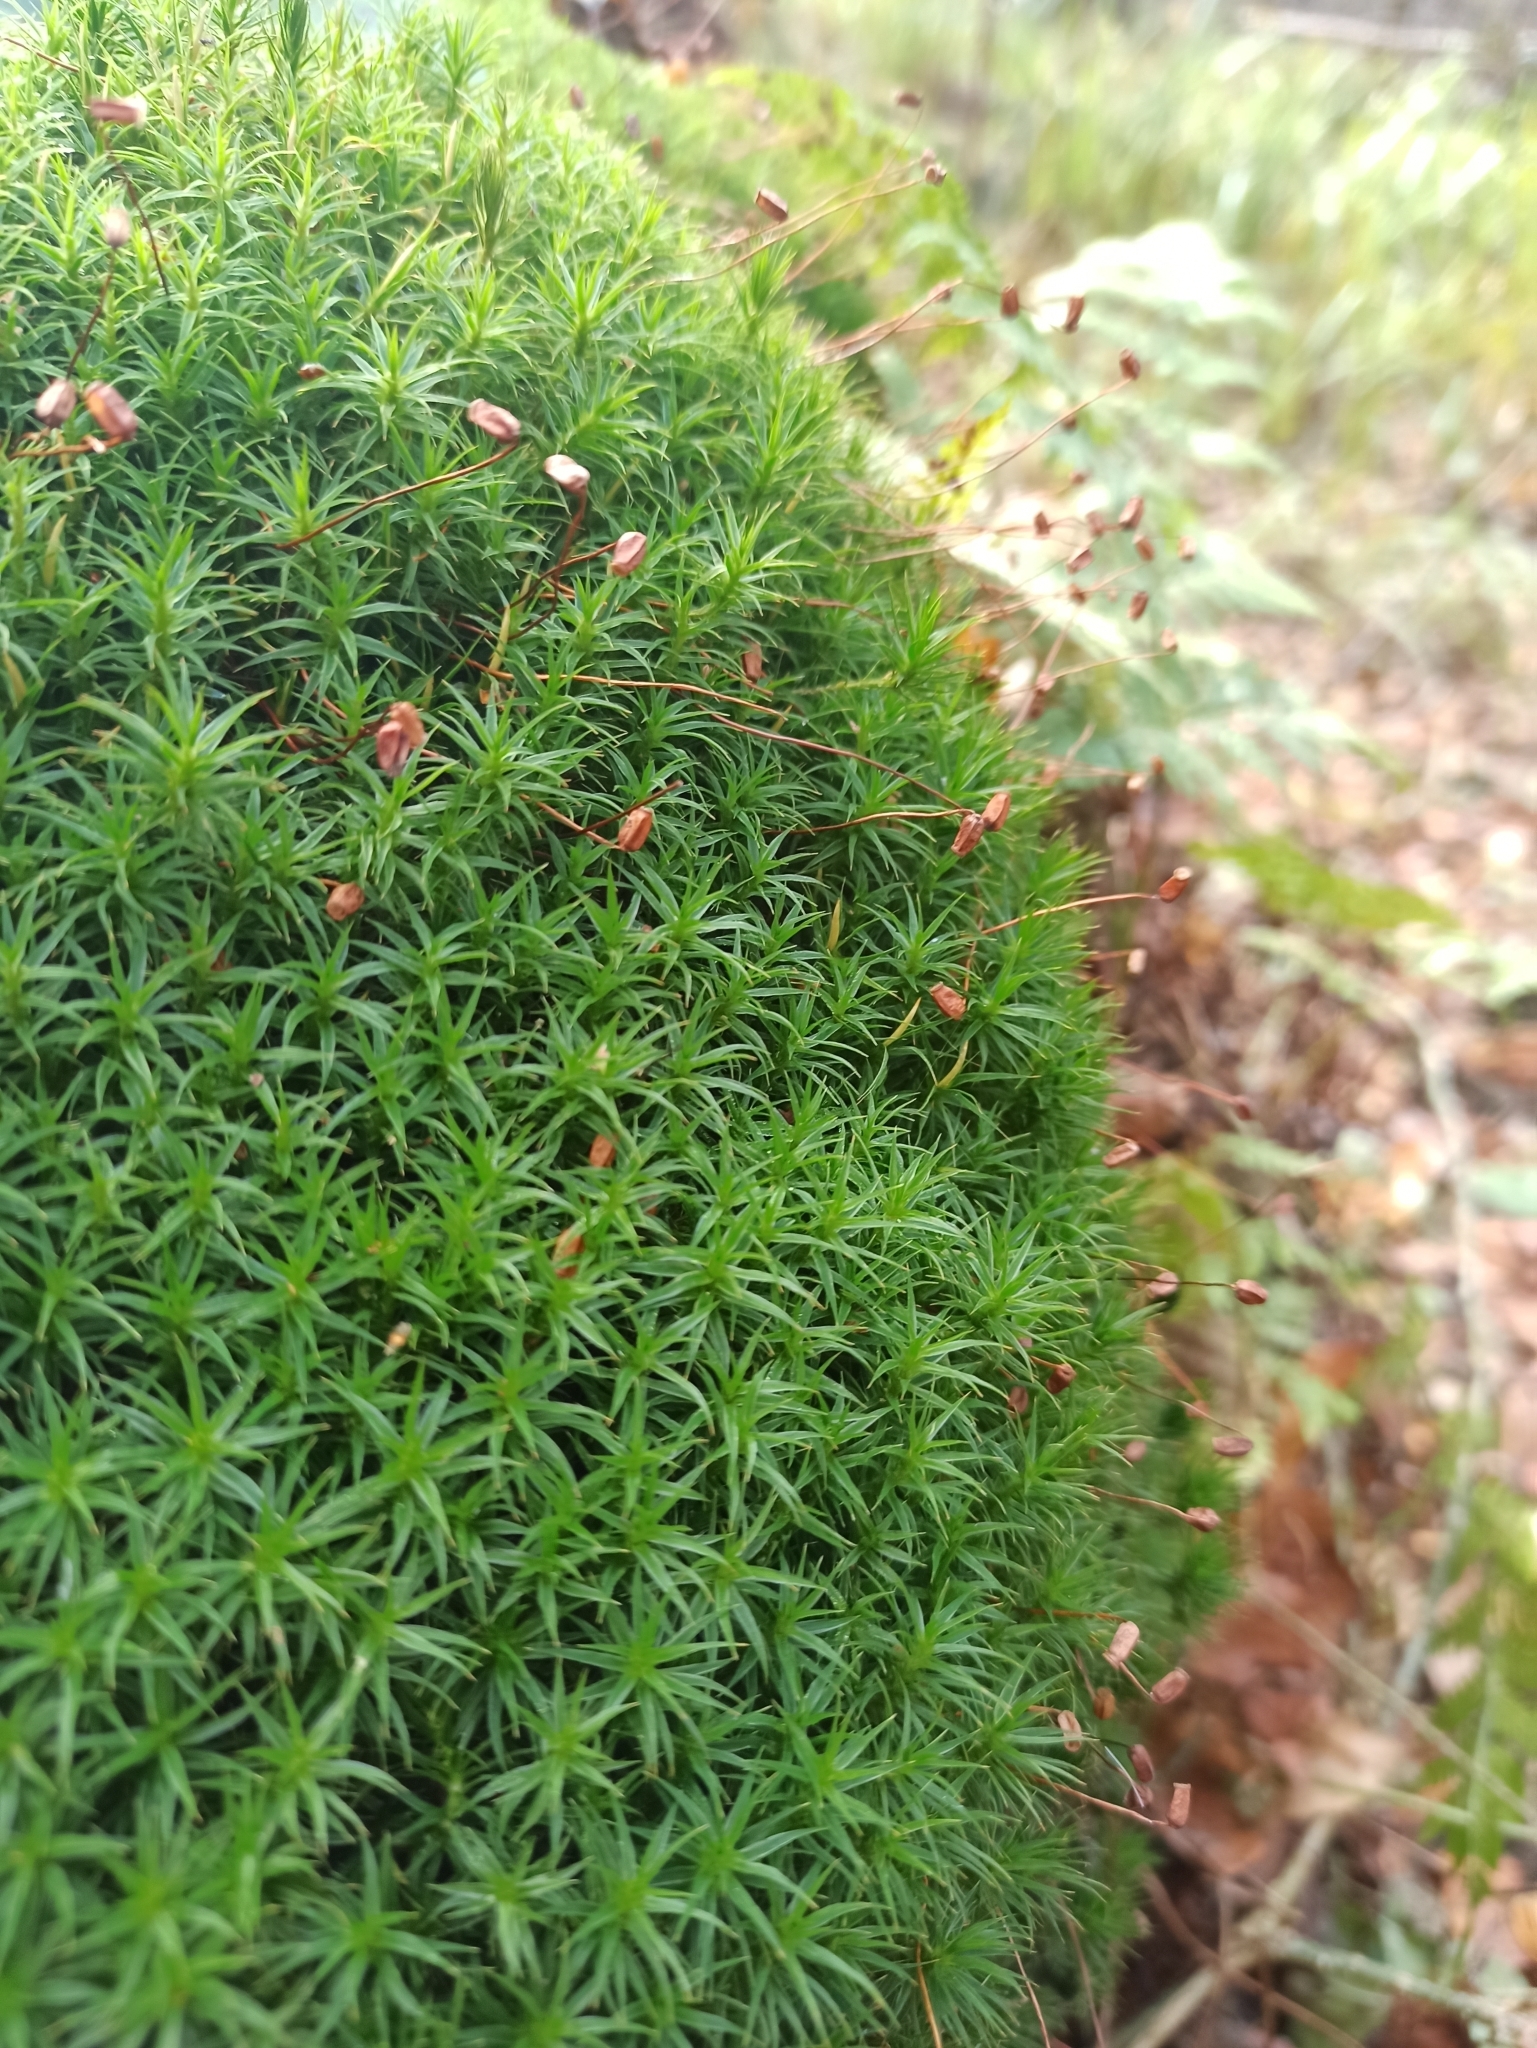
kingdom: Plantae
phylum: Bryophyta
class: Polytrichopsida
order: Polytrichales
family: Polytrichaceae
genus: Polytrichum
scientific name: Polytrichum formosum
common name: Bank haircap moss
